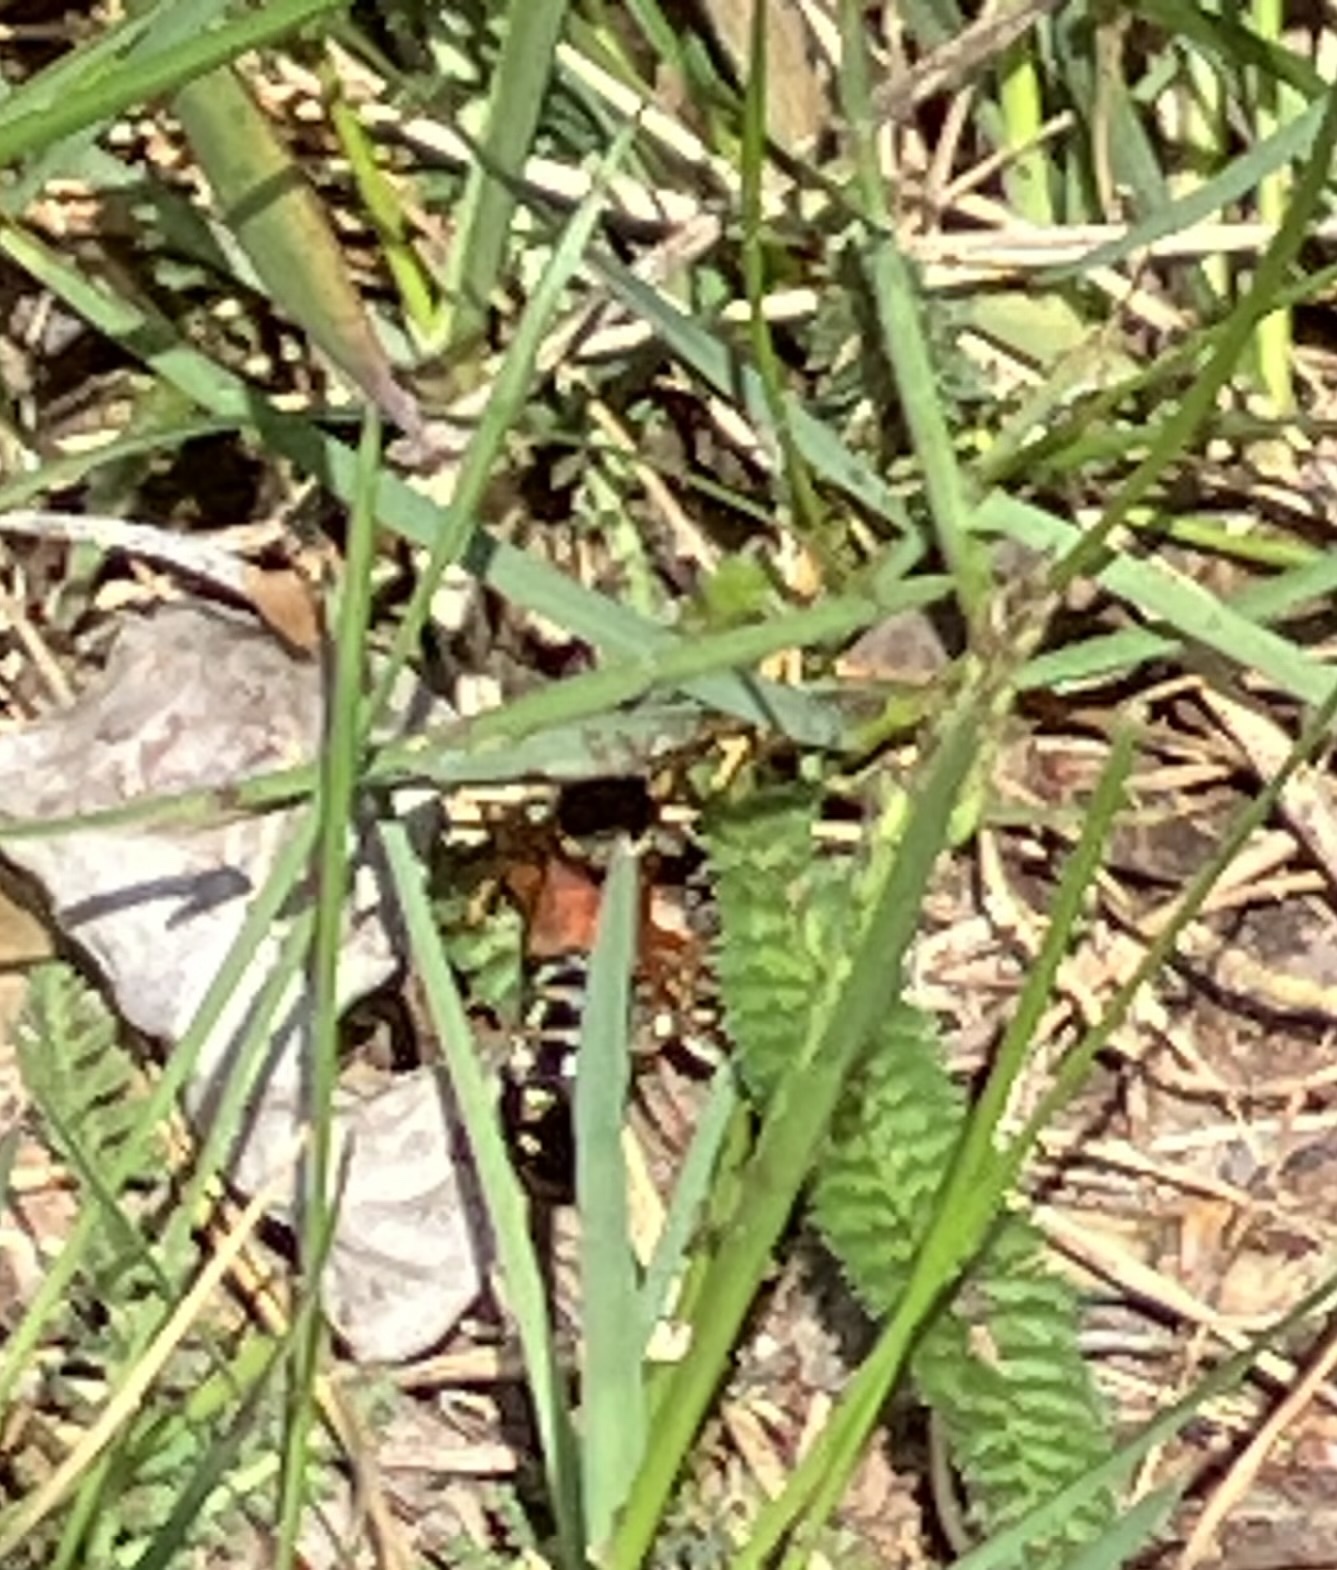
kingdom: Animalia
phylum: Arthropoda
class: Insecta
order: Coleoptera
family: Staphylinidae
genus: Staphylinus
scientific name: Staphylinus caesareus
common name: Staph beetle
